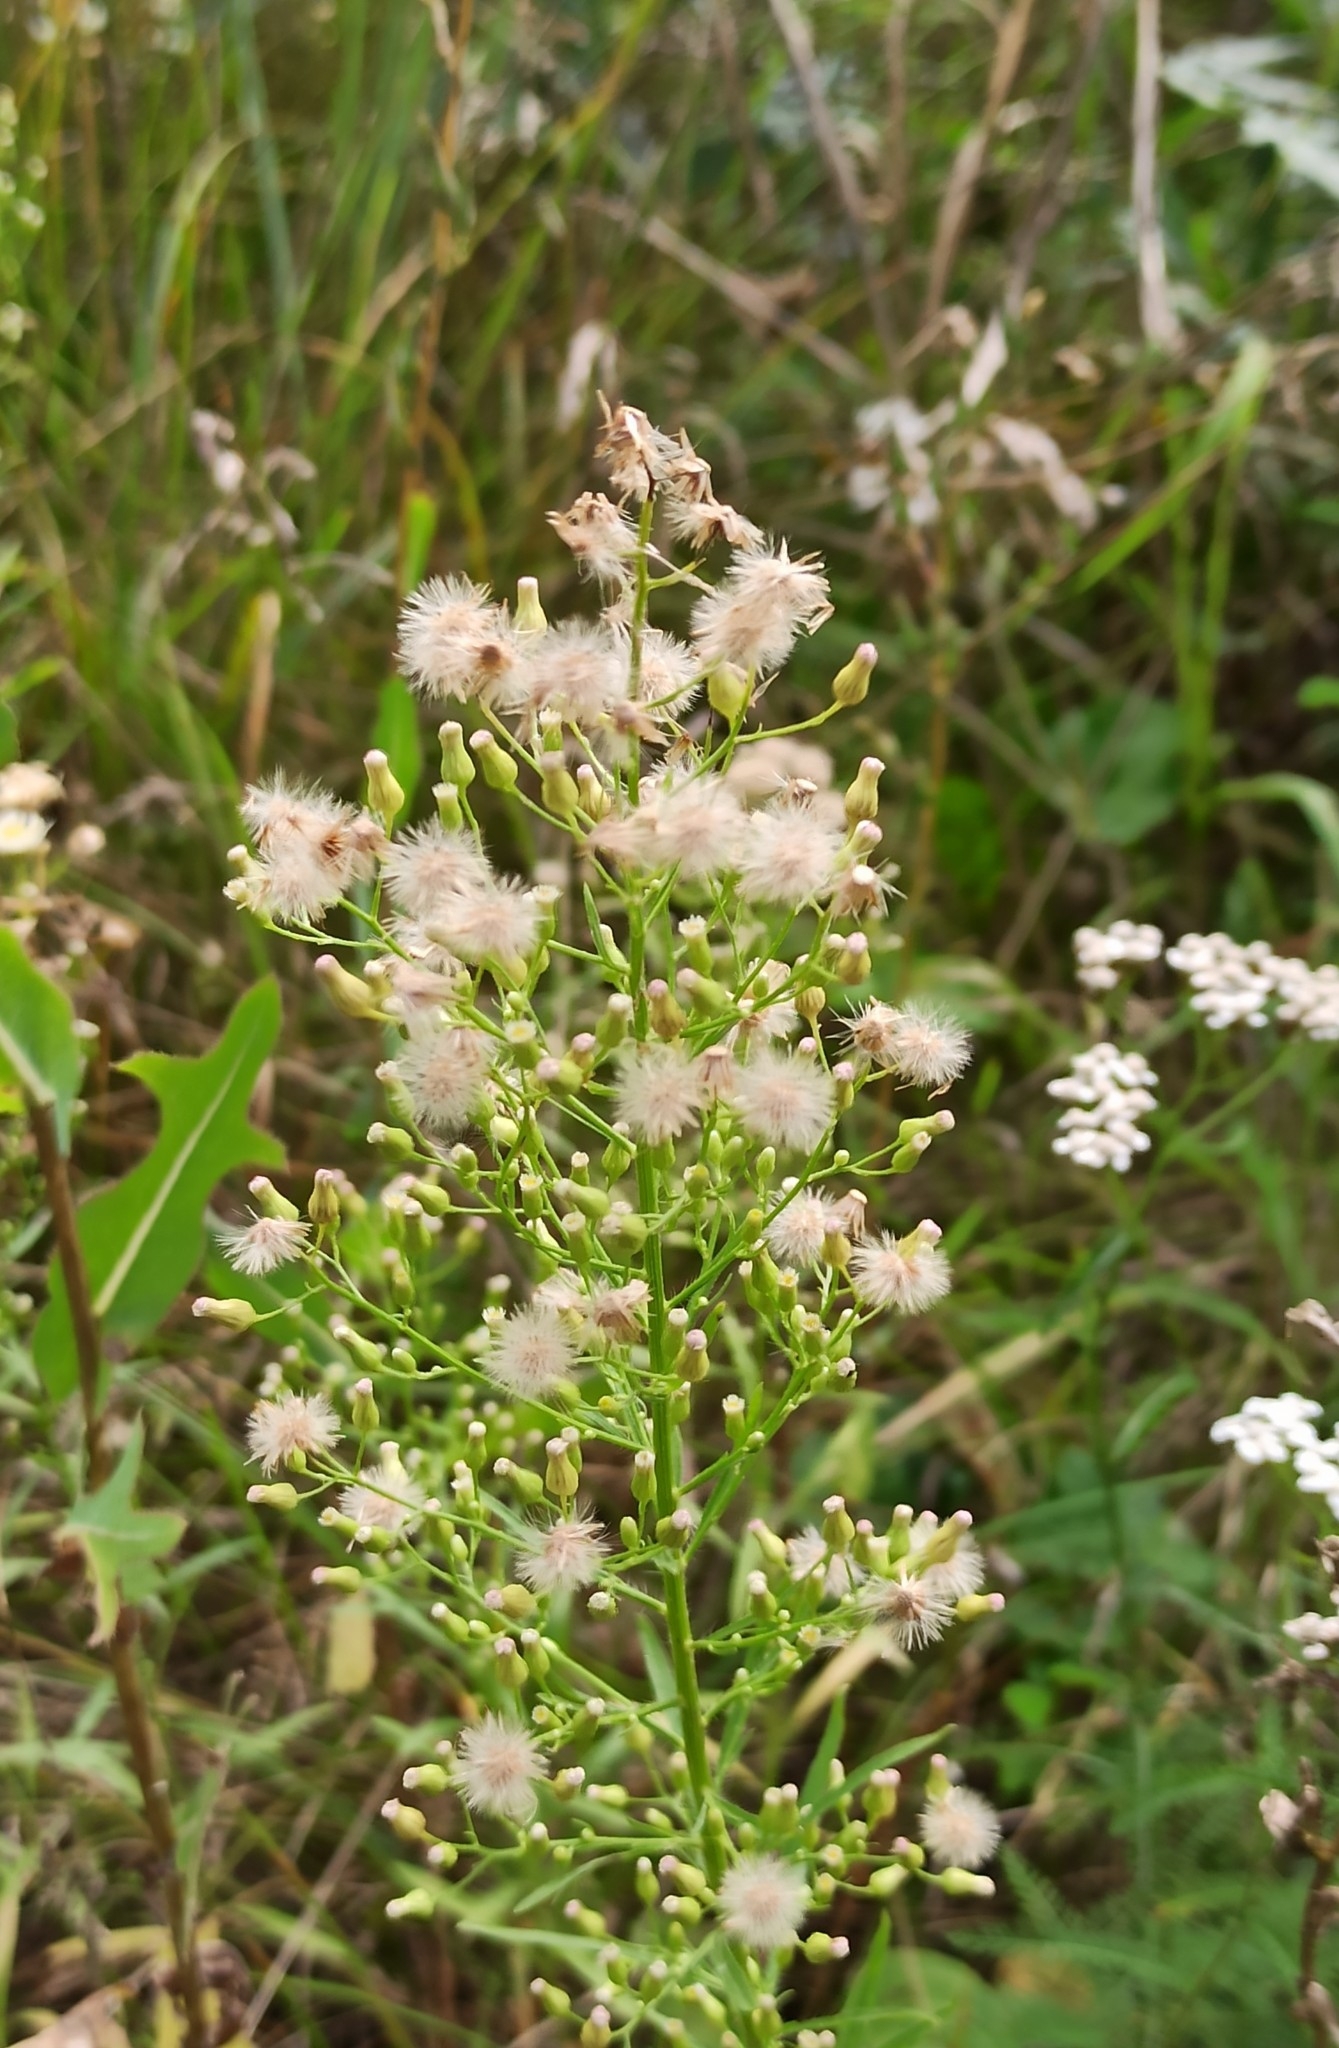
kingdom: Plantae
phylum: Tracheophyta
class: Magnoliopsida
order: Asterales
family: Asteraceae
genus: Erigeron
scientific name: Erigeron canadensis
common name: Canadian fleabane
